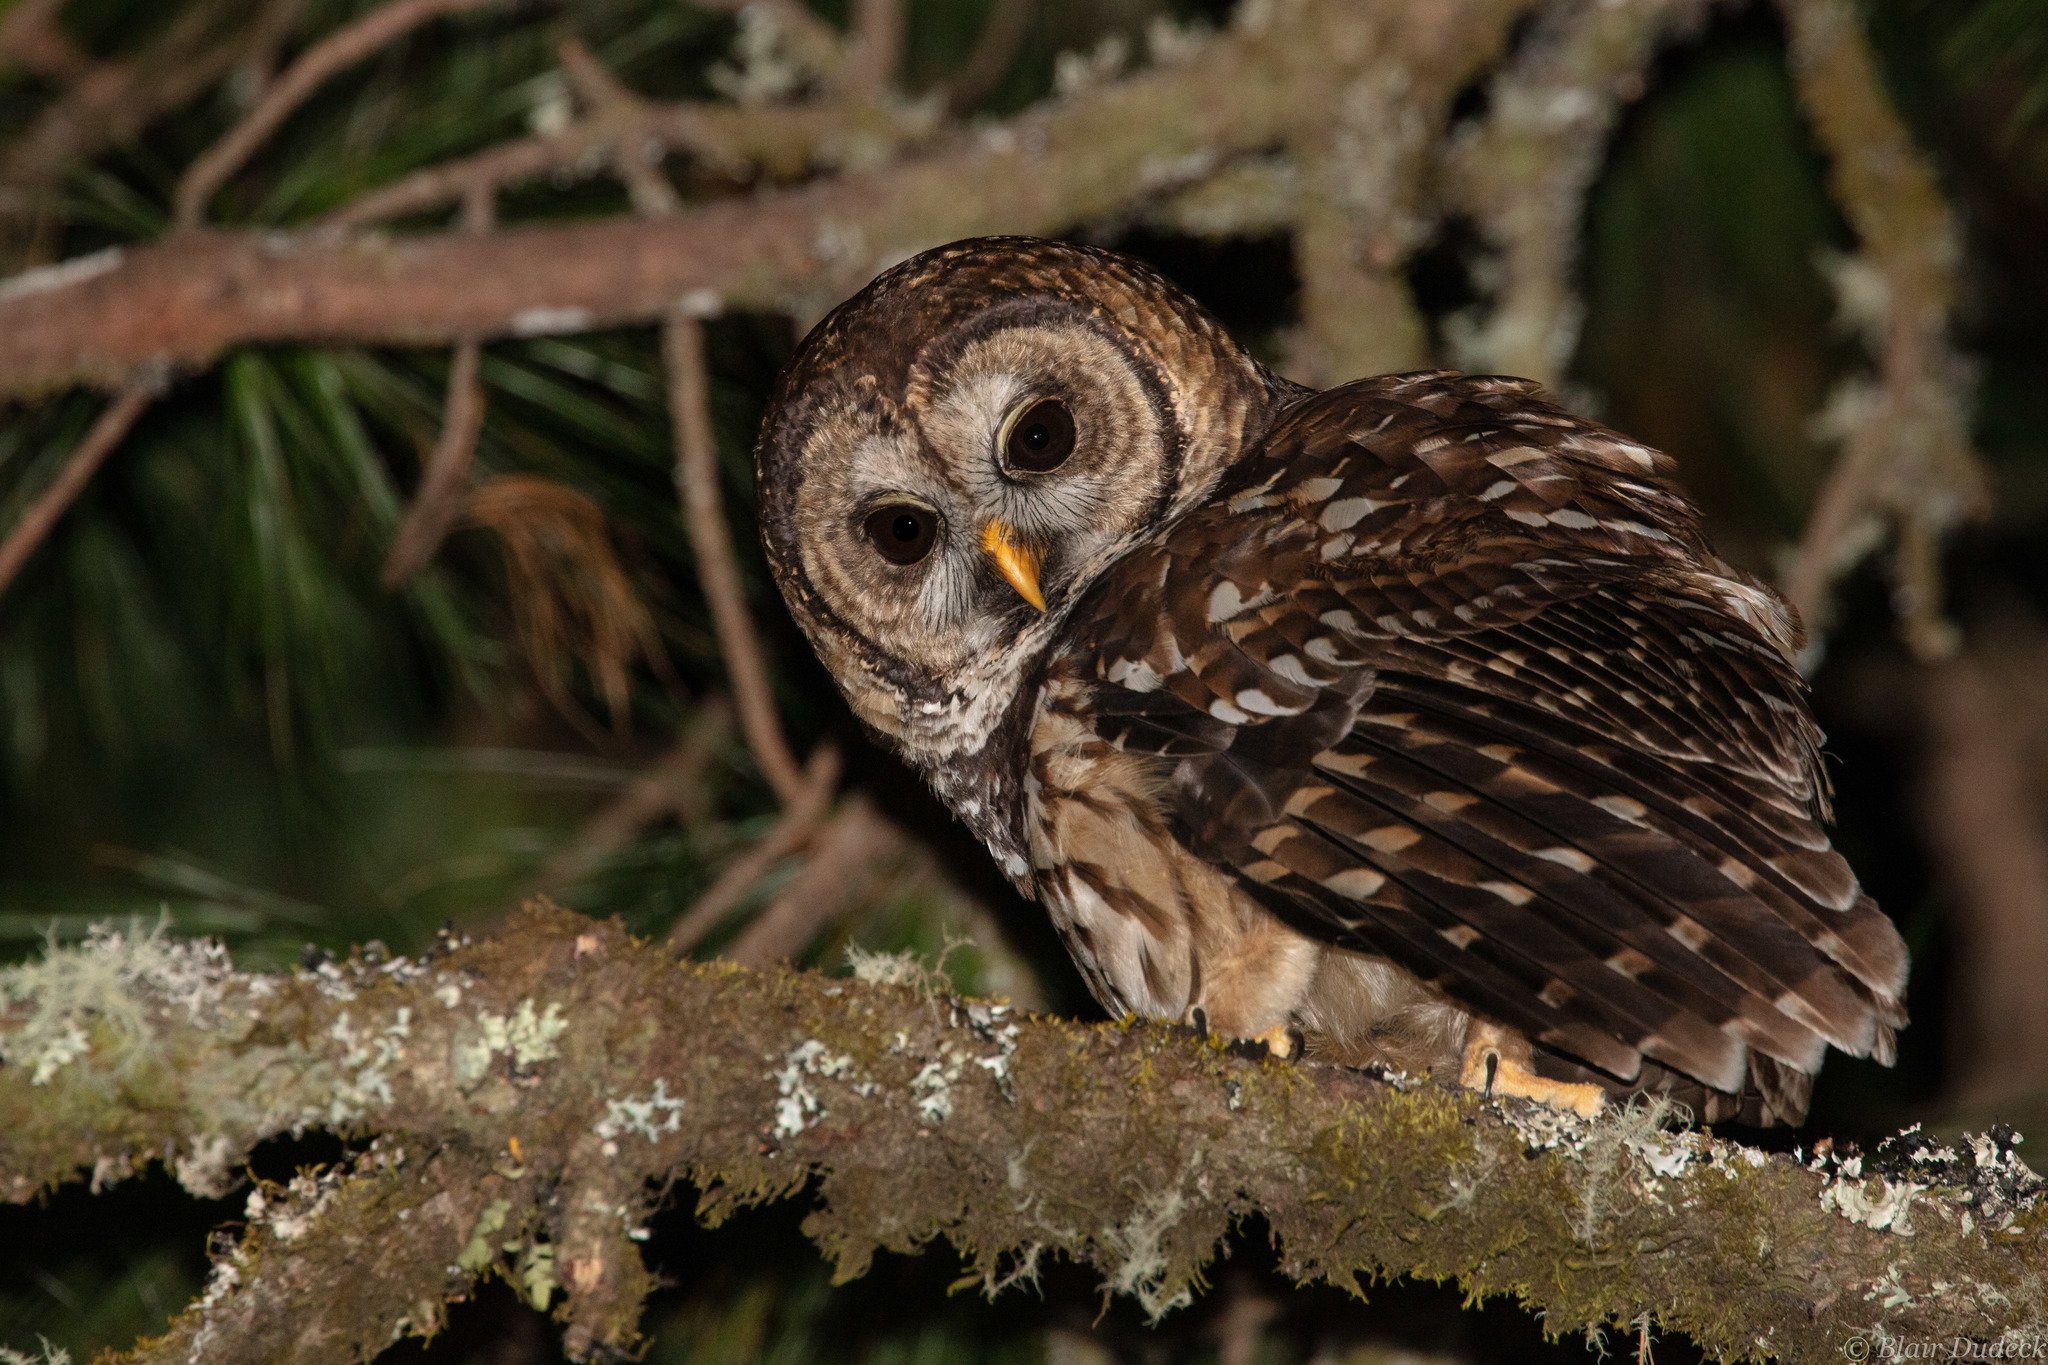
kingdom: Animalia
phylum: Chordata
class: Aves
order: Strigiformes
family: Strigidae
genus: Strix
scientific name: Strix fulvescens
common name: Fulvous owl
